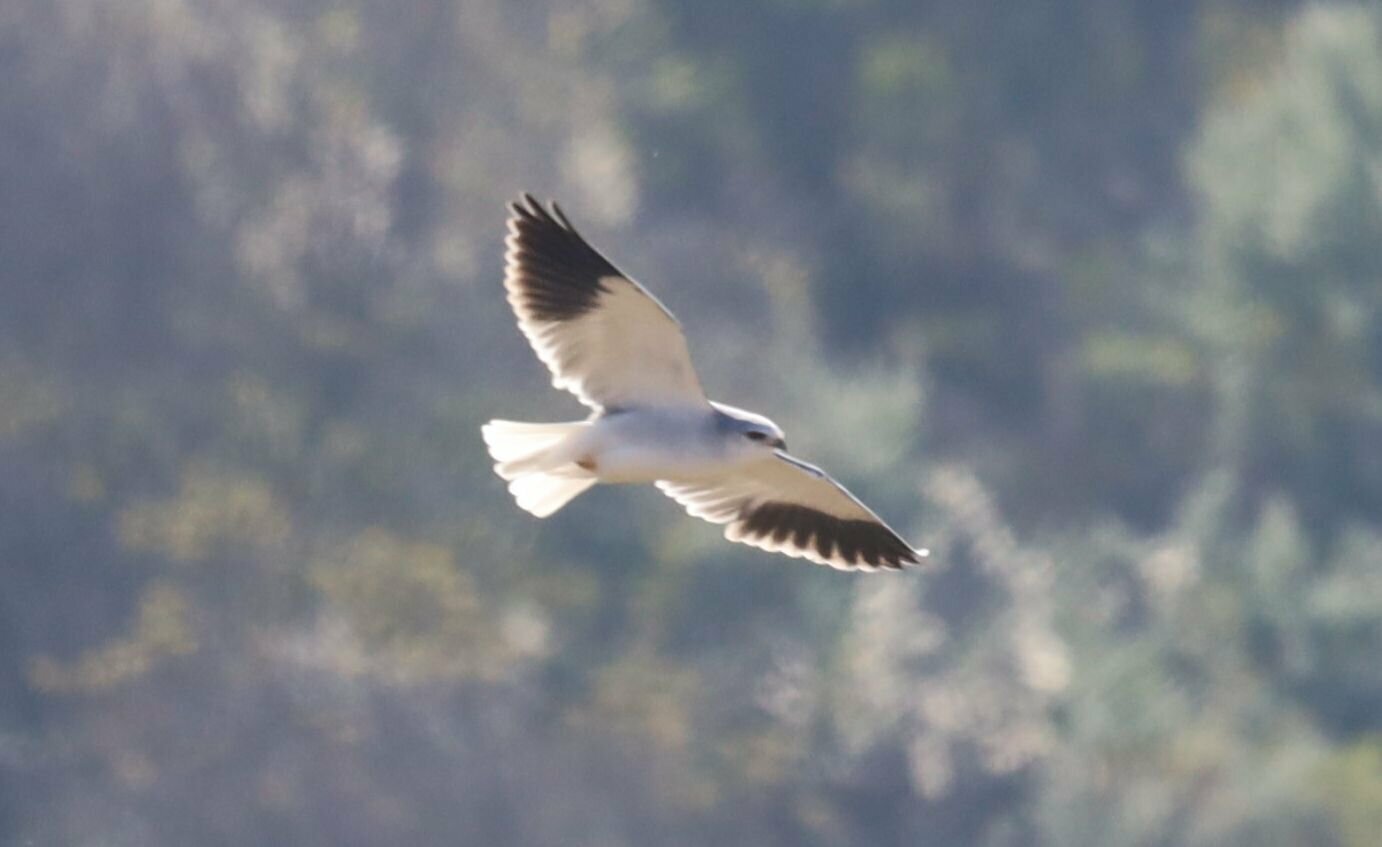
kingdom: Animalia
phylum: Chordata
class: Aves
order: Accipitriformes
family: Accipitridae
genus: Elanus
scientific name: Elanus caeruleus
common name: Black-winged kite
